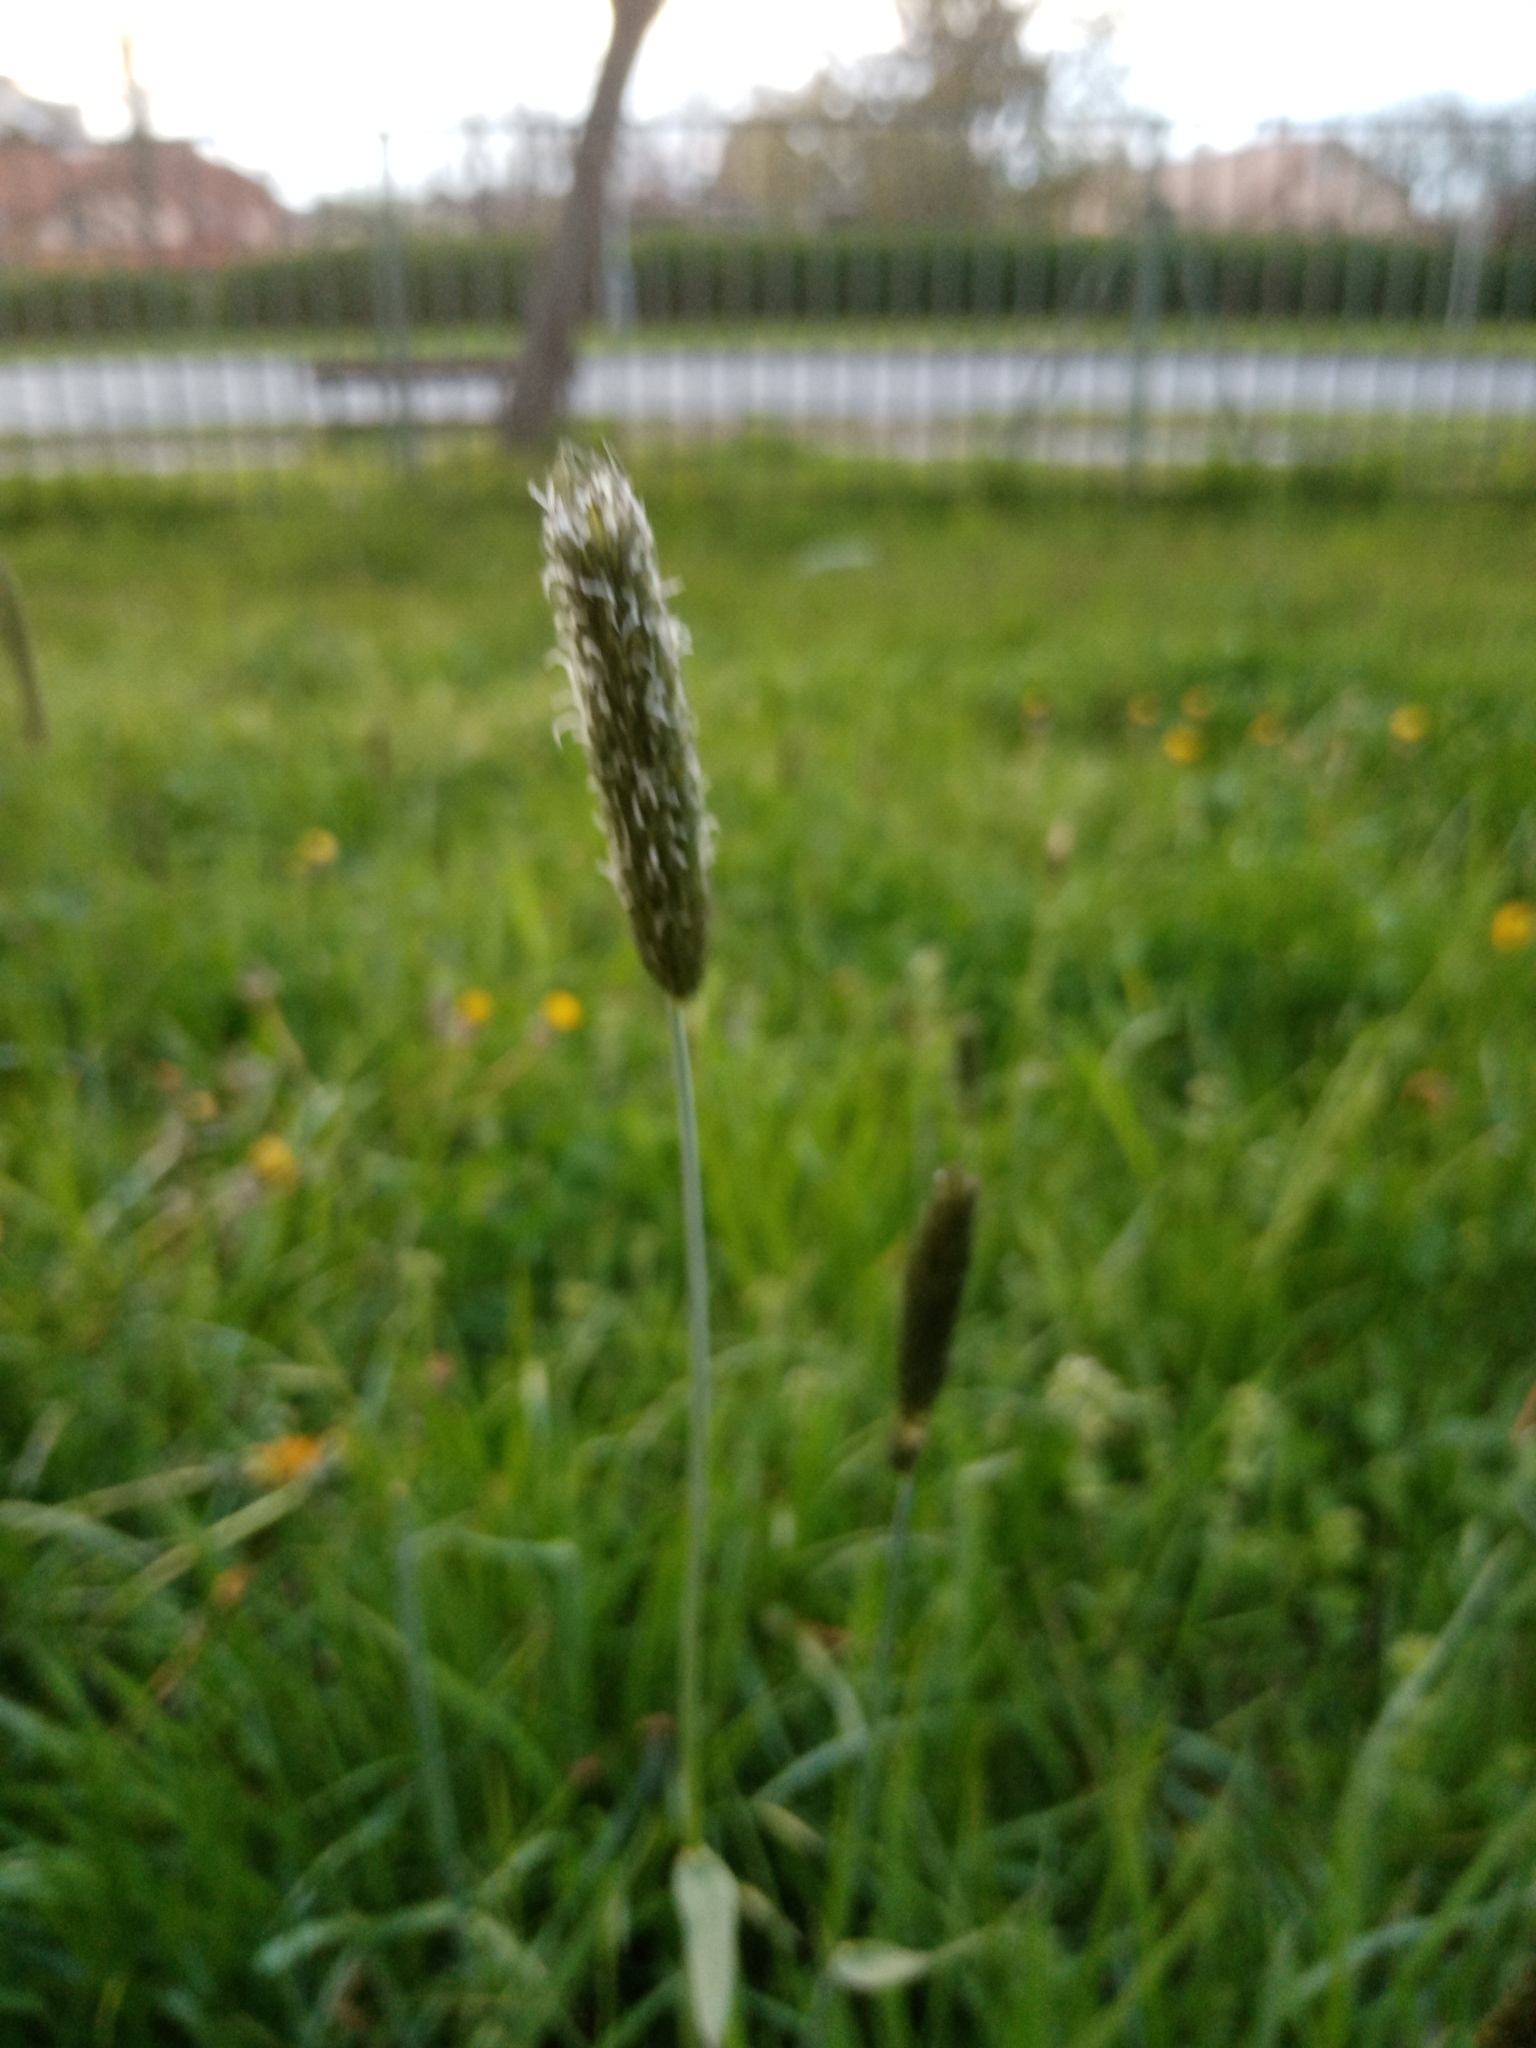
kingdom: Plantae
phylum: Tracheophyta
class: Liliopsida
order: Poales
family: Poaceae
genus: Alopecurus
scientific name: Alopecurus pratensis
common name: Meadow foxtail
